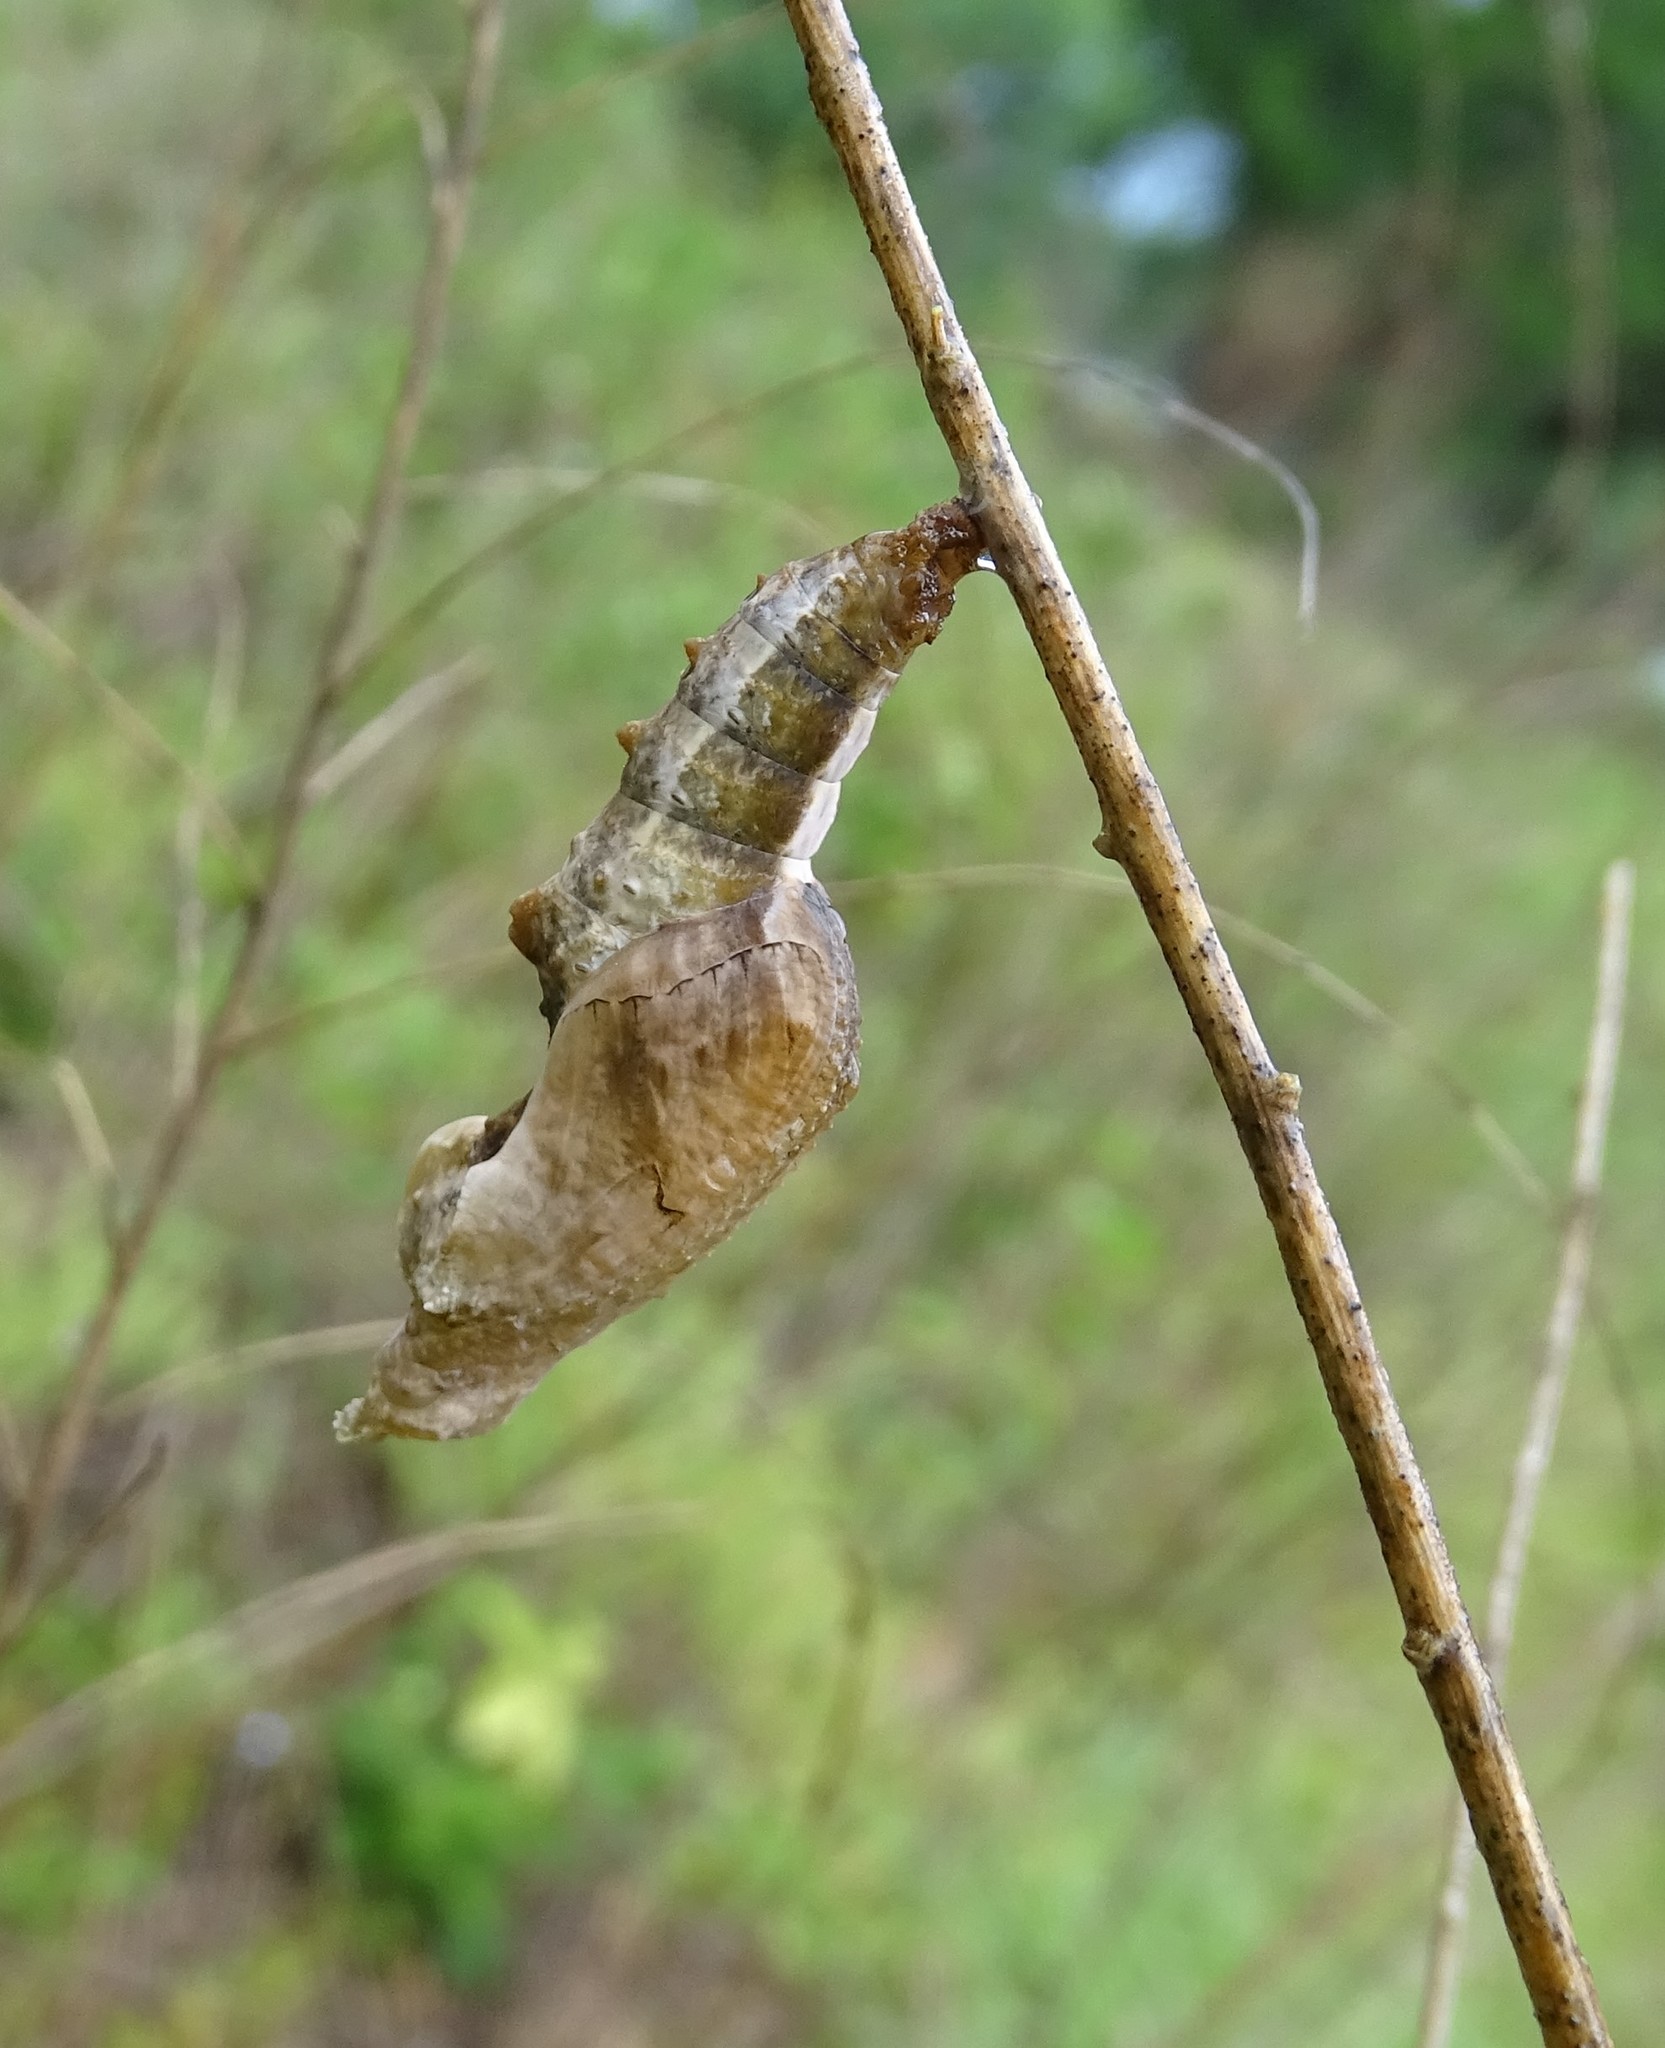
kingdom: Animalia
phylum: Arthropoda
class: Insecta
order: Lepidoptera
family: Nymphalidae
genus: Dione
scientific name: Dione vanillae
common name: Gulf fritillary
